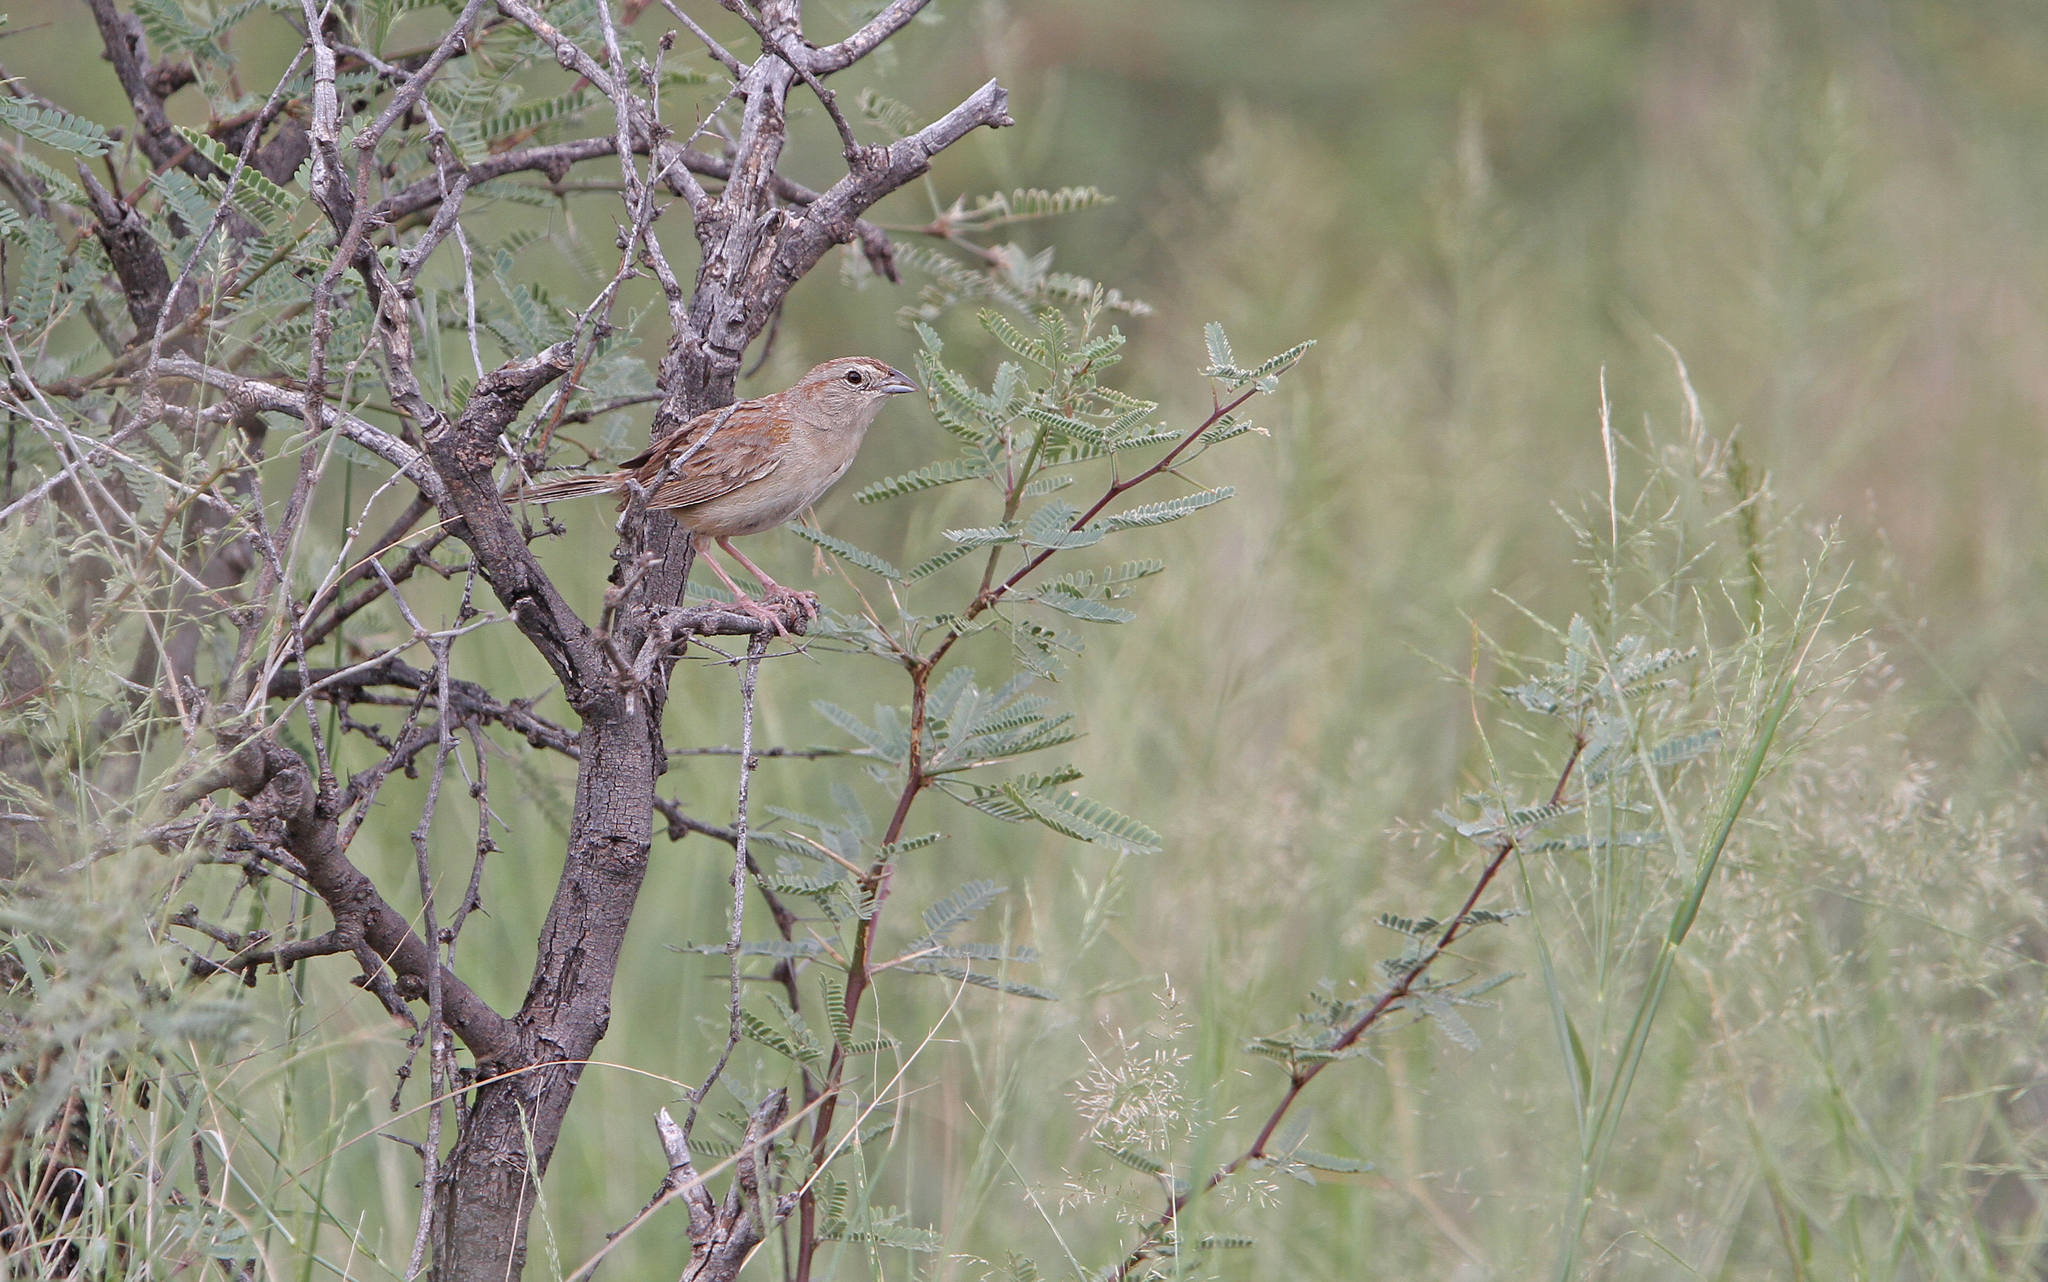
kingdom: Animalia
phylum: Chordata
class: Aves
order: Passeriformes
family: Passerellidae
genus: Peucaea
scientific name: Peucaea botterii
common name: Botteri's sparrow
